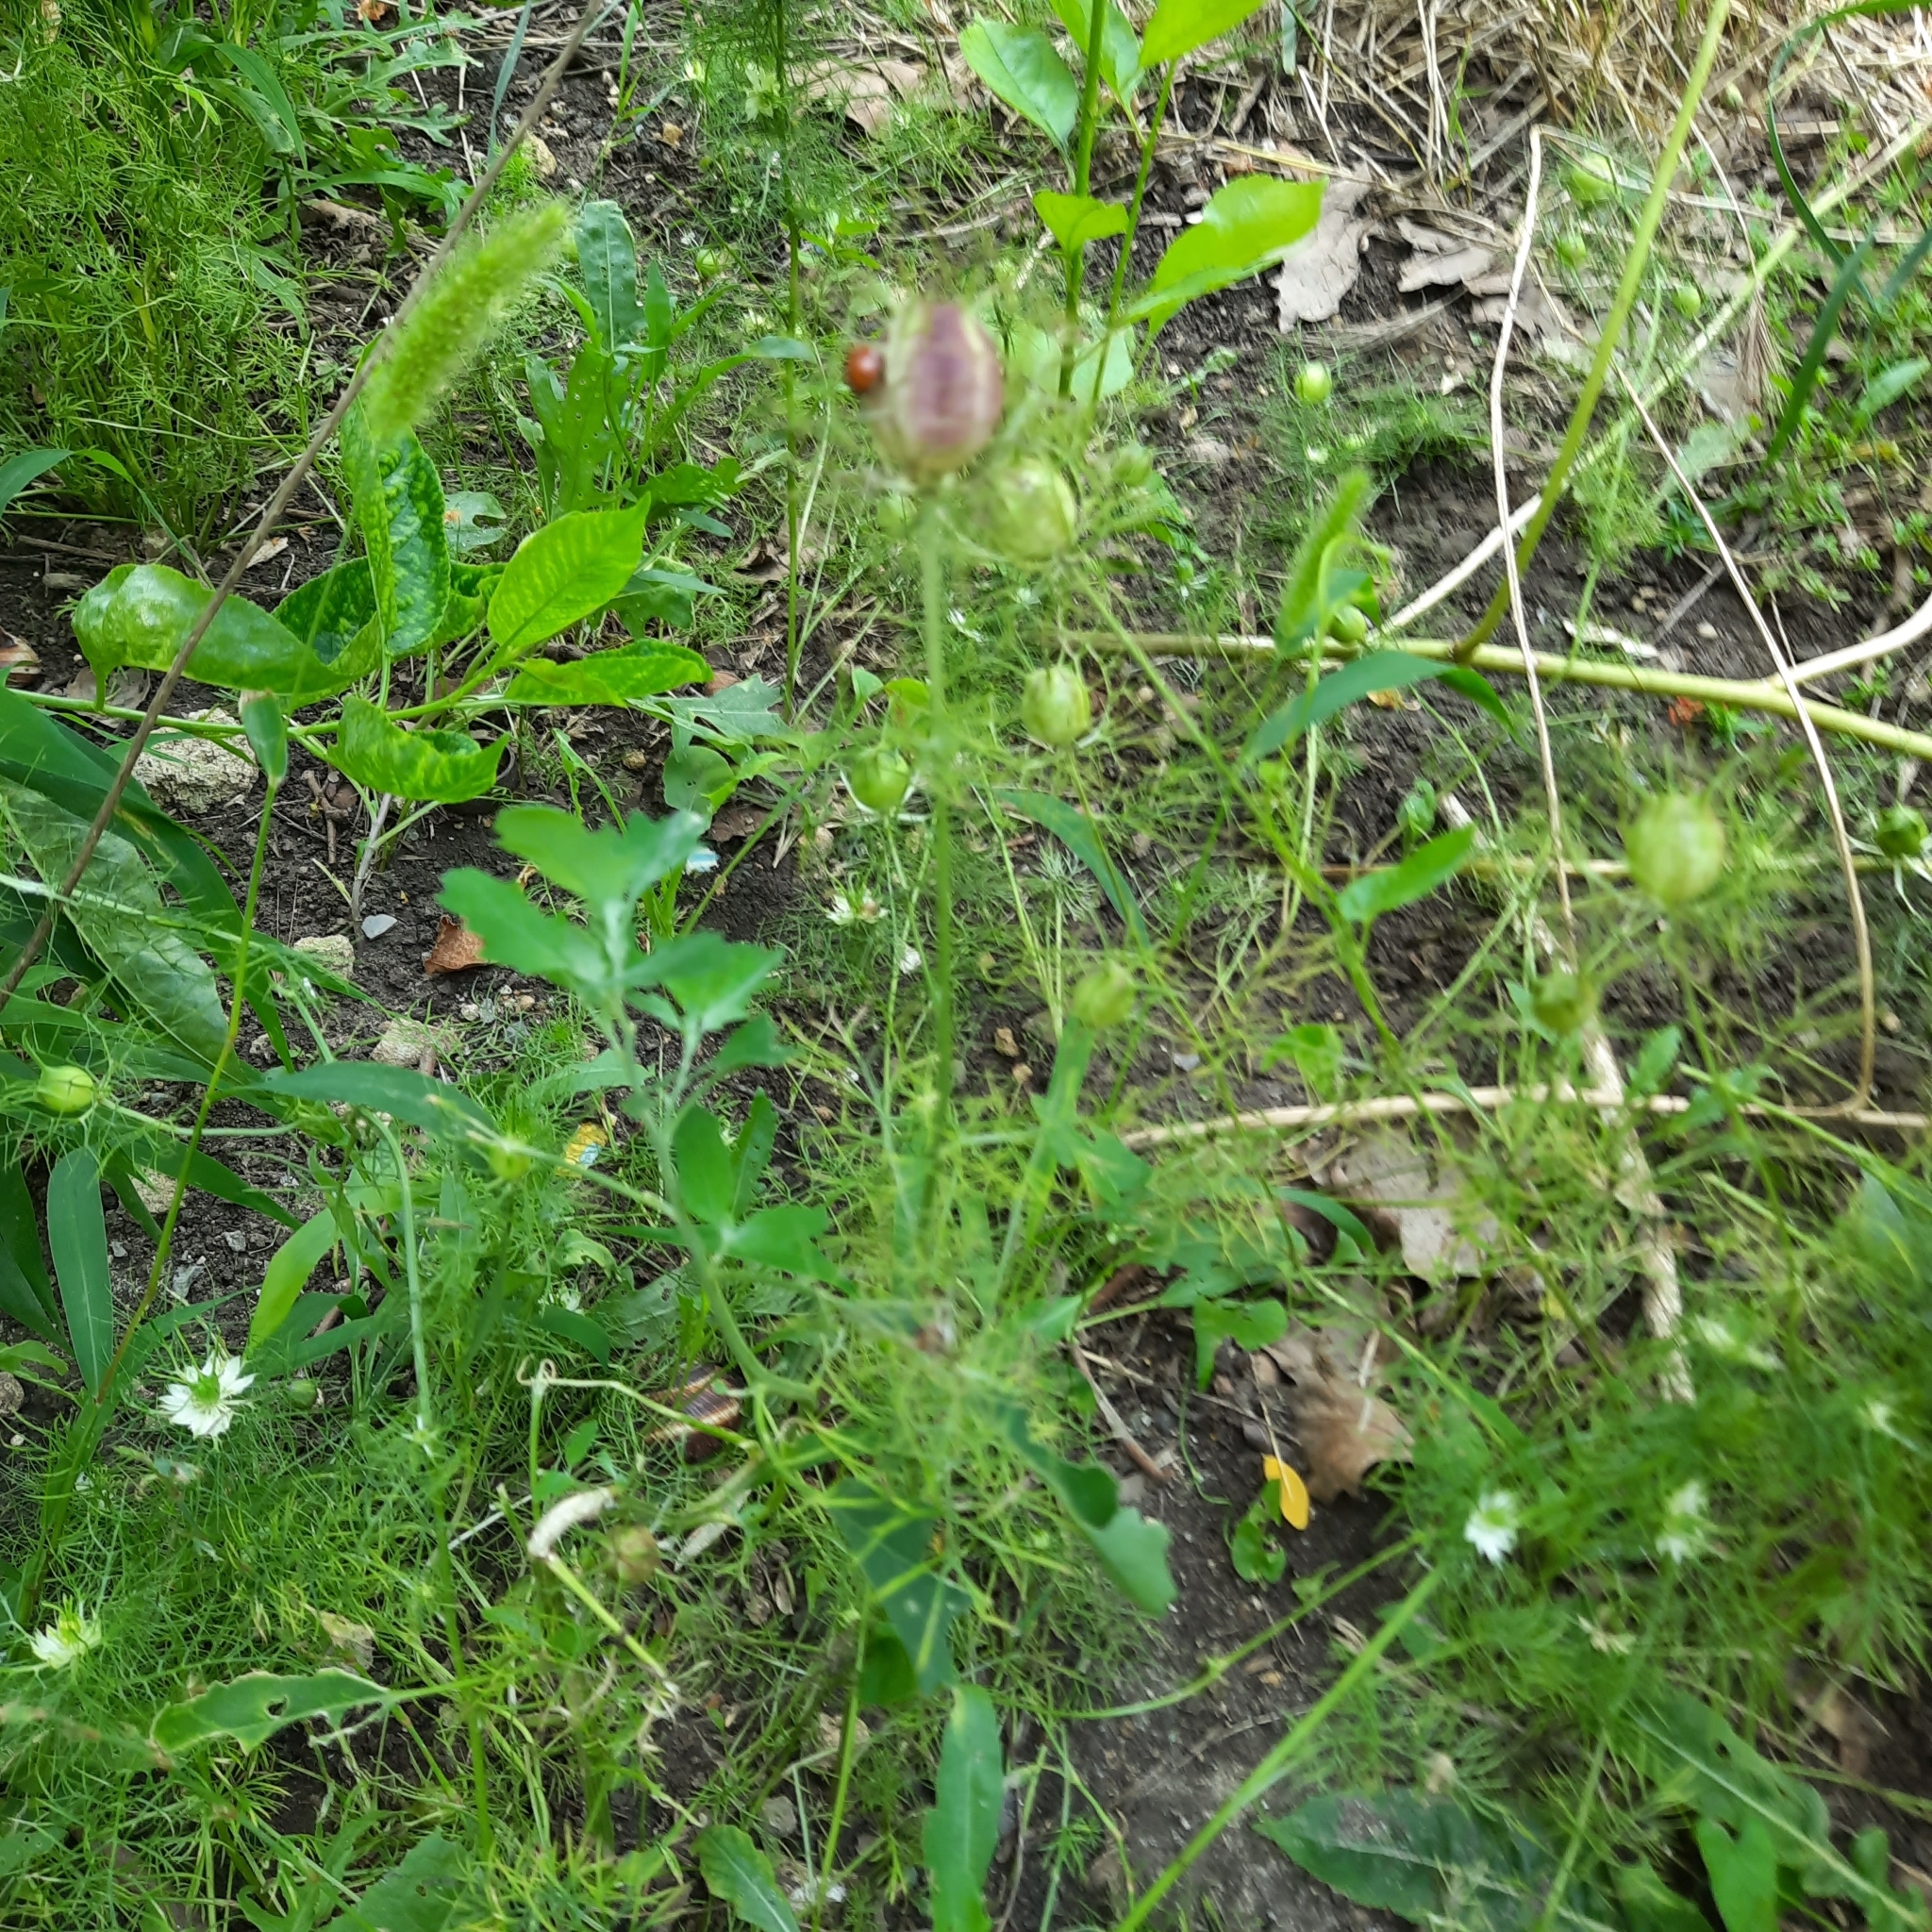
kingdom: Plantae
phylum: Tracheophyta
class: Magnoliopsida
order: Ranunculales
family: Ranunculaceae
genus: Nigella
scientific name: Nigella damascena
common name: Love-in-a-mist
